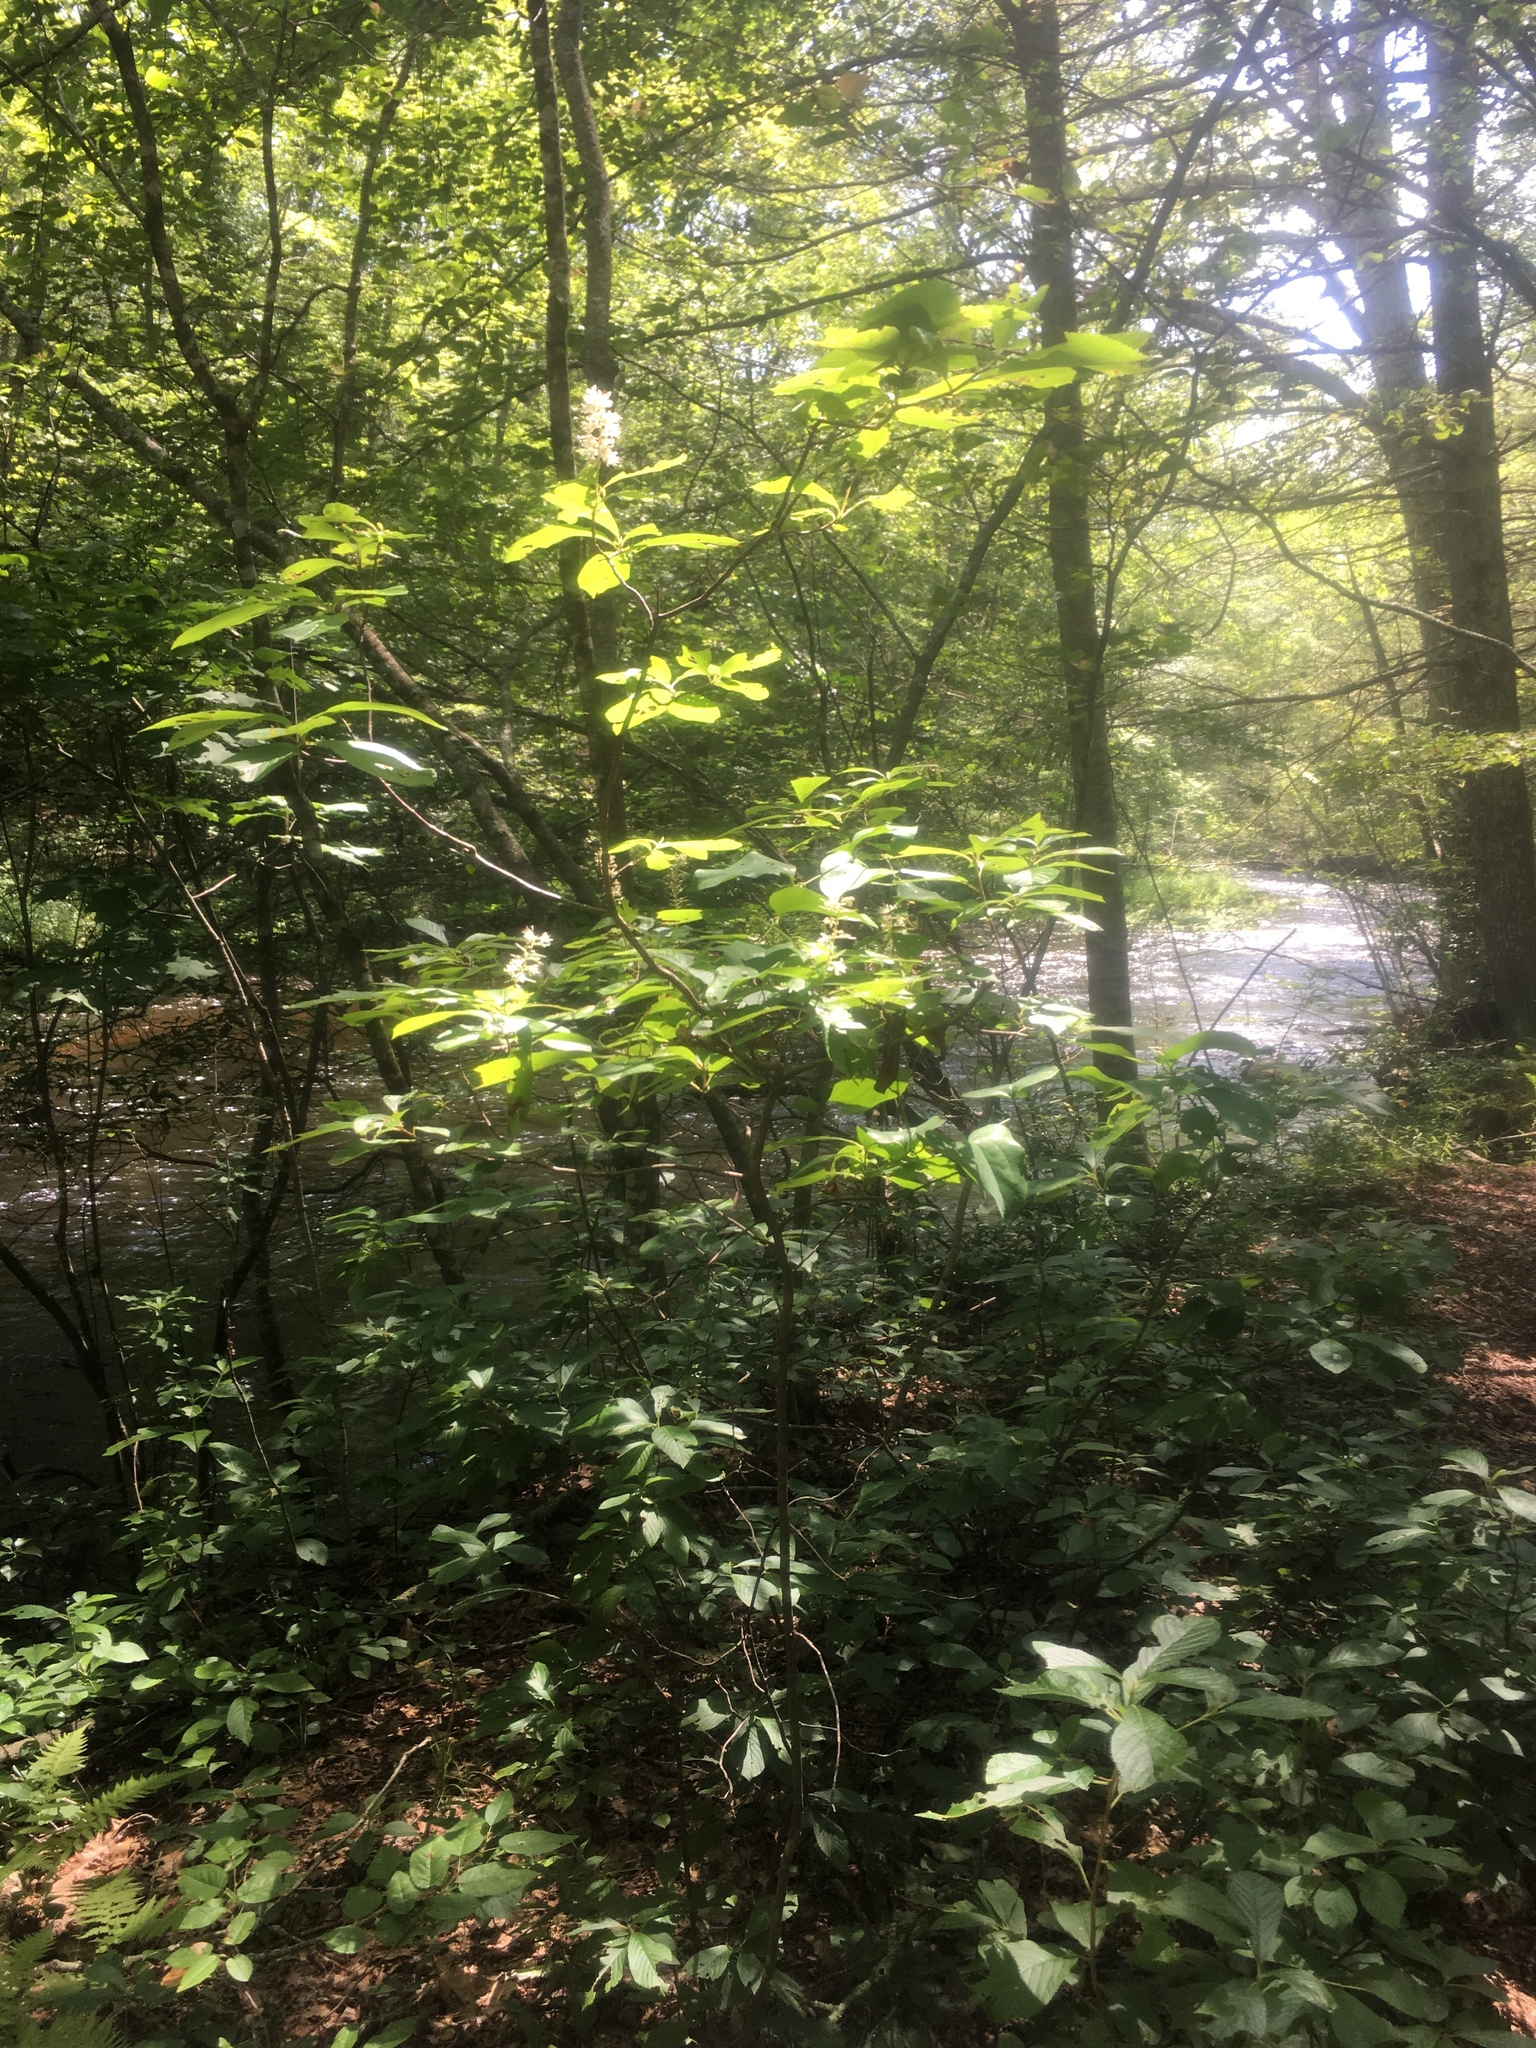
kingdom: Plantae
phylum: Tracheophyta
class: Magnoliopsida
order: Ericales
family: Clethraceae
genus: Clethra
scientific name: Clethra alnifolia
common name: Sweet pepperbush
